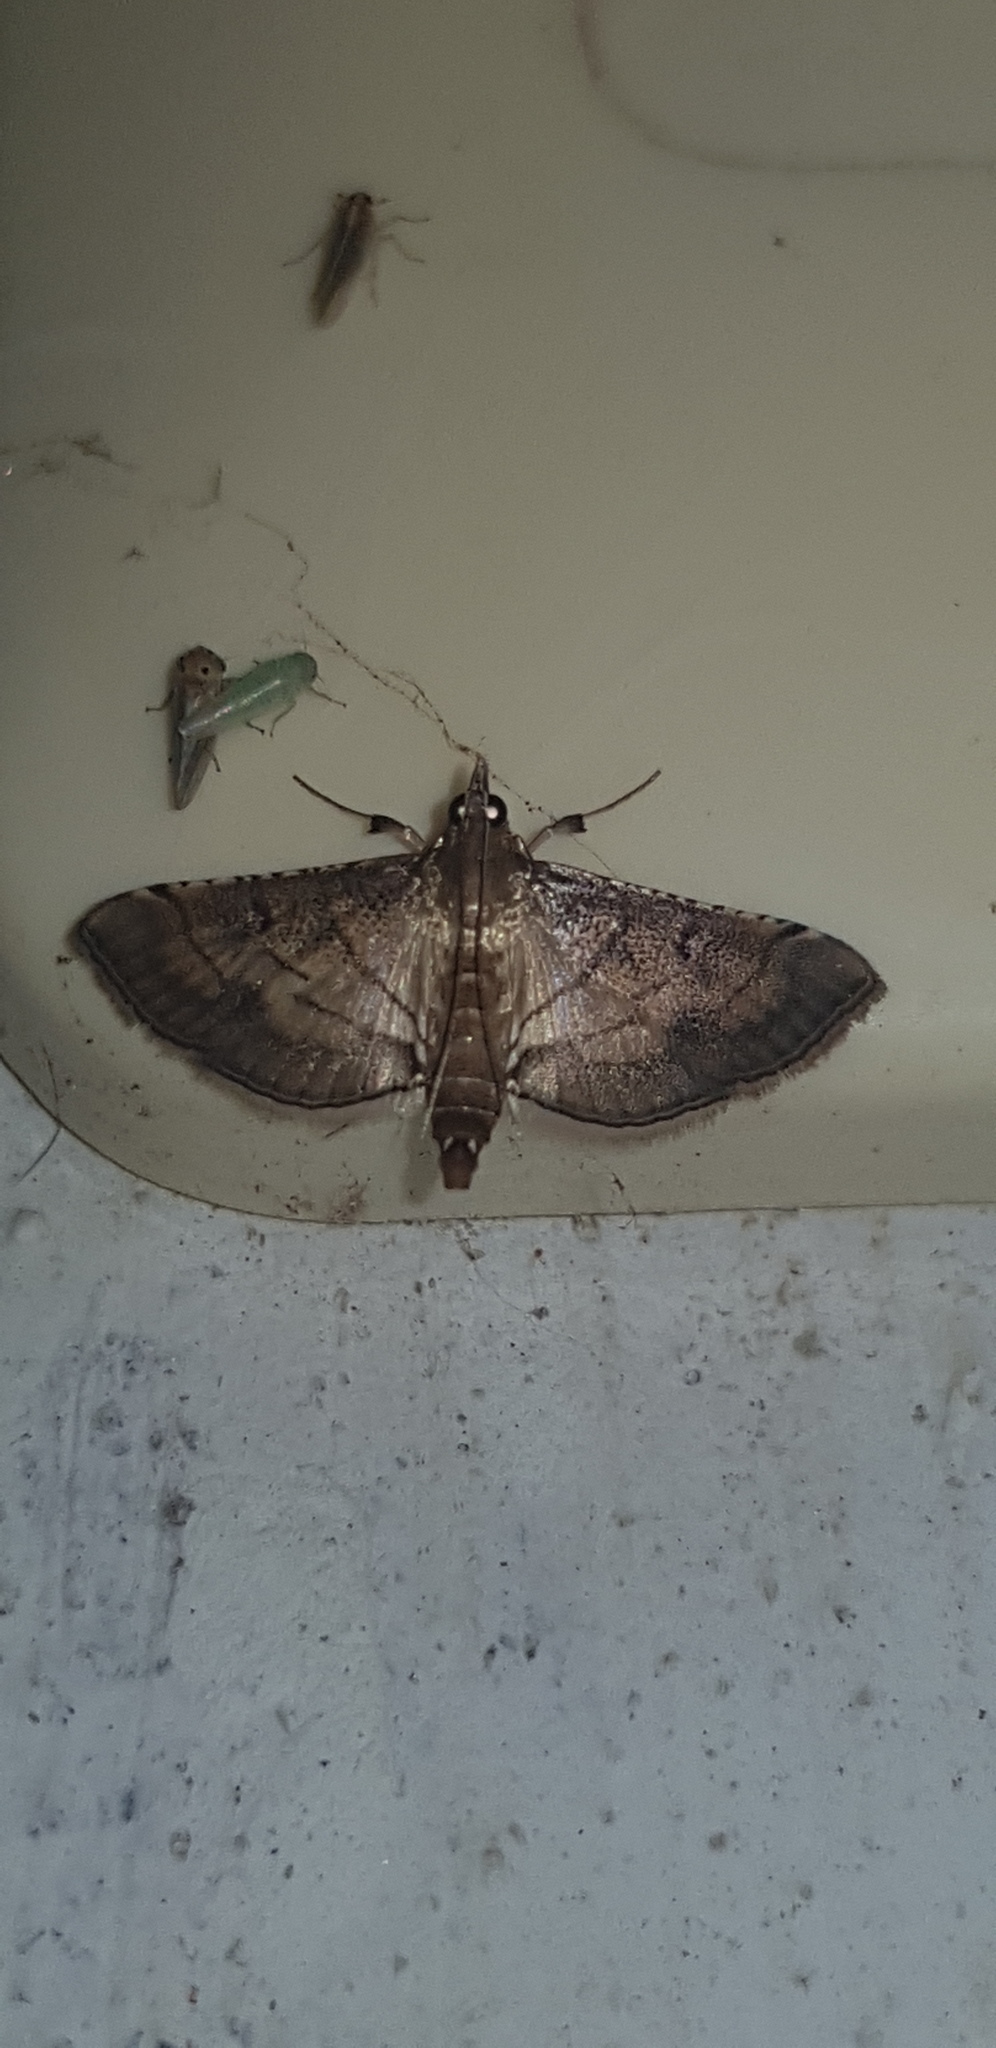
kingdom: Animalia
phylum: Arthropoda
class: Insecta
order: Lepidoptera
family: Crambidae
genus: Cnaphalocrocis
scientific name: Cnaphalocrocis poeyalis
